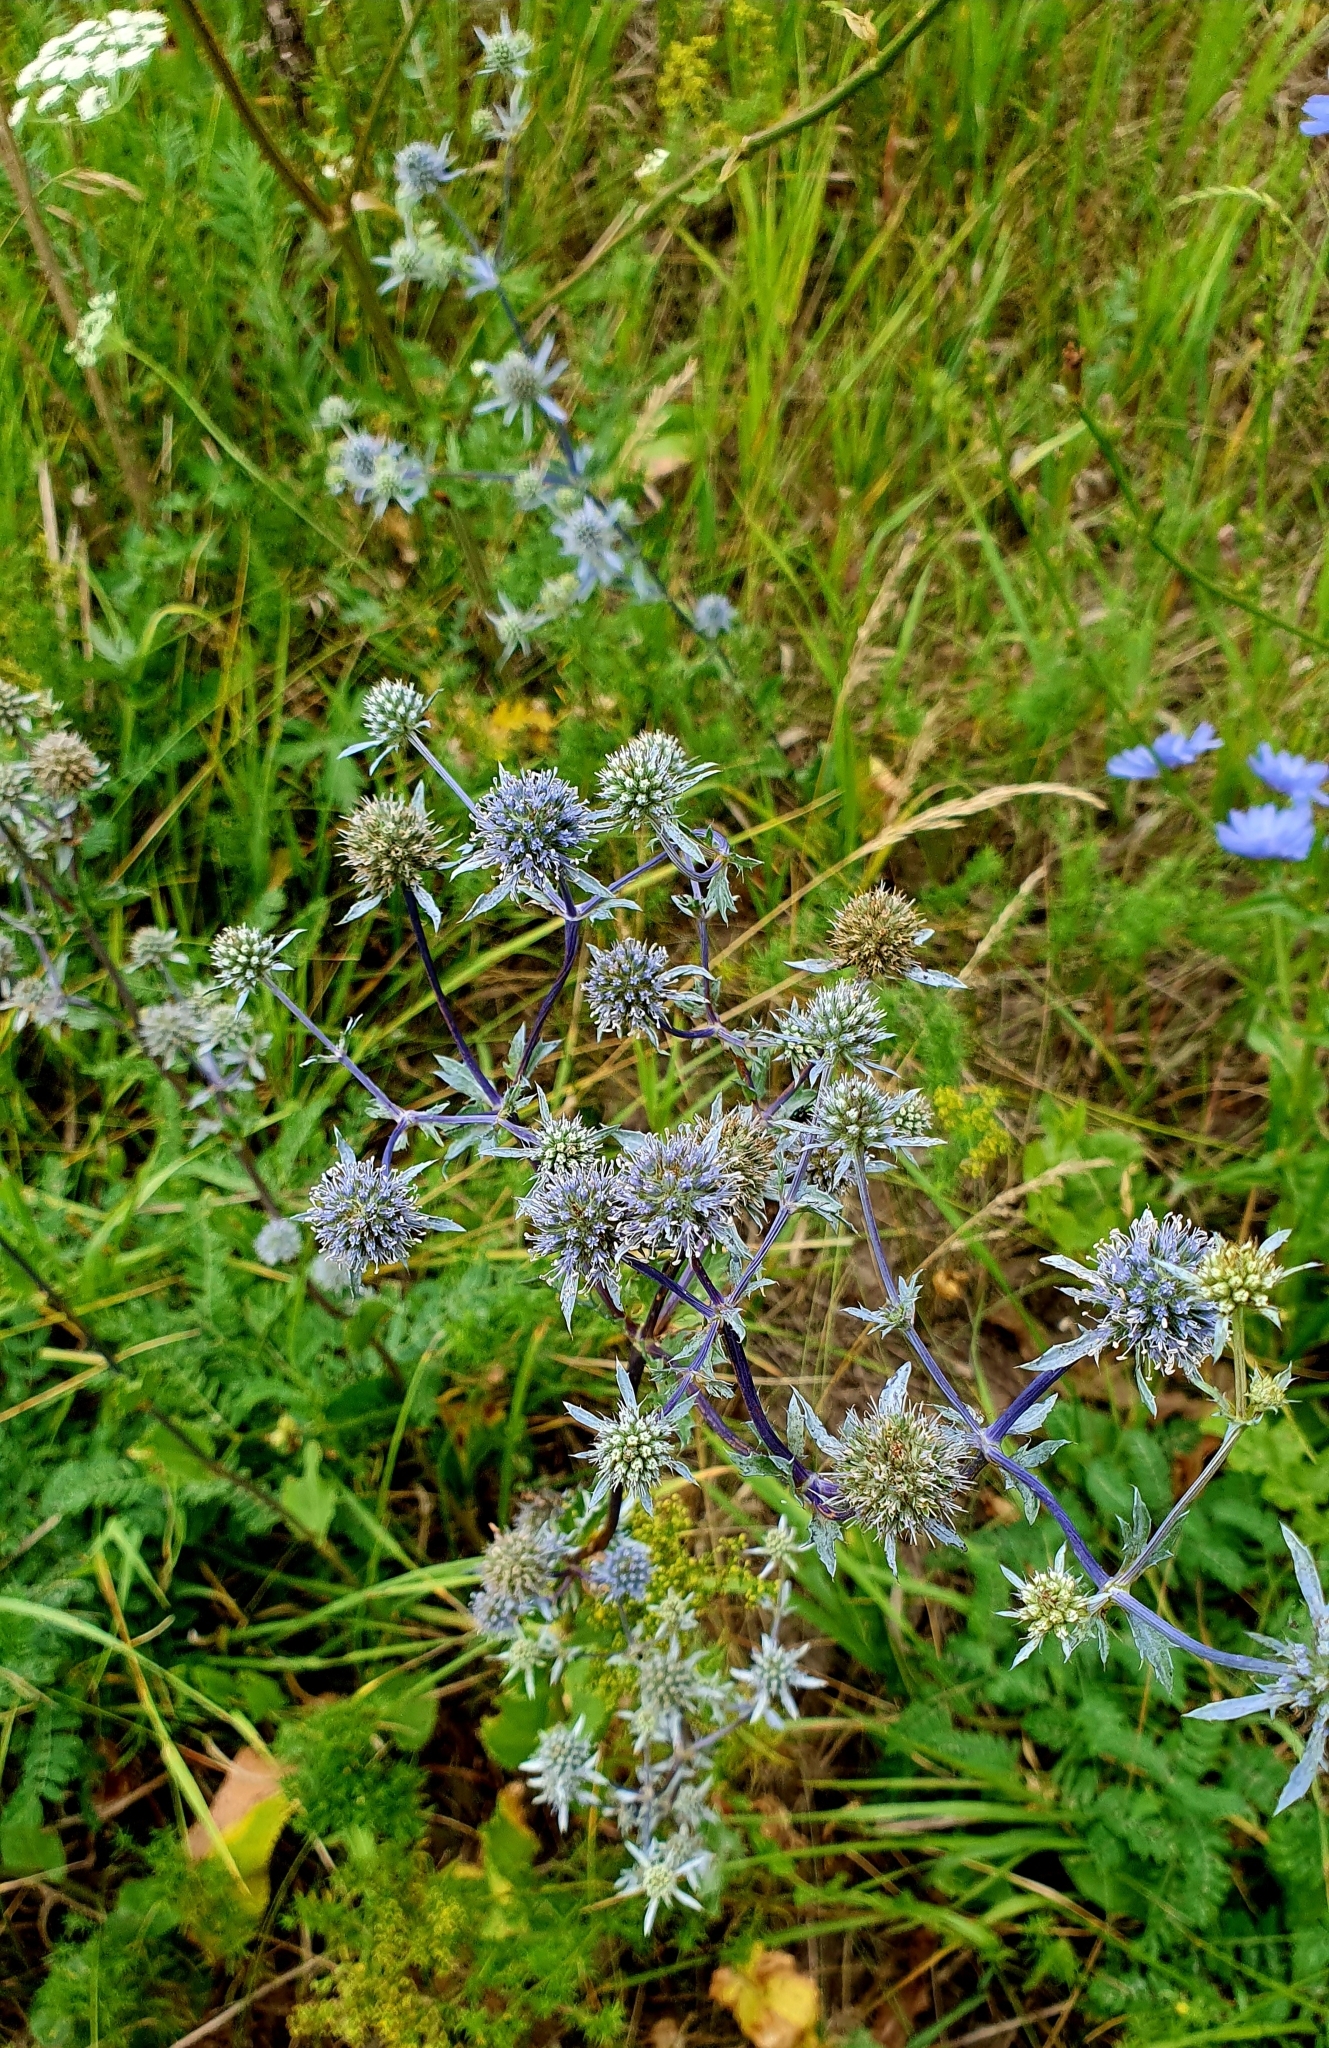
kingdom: Plantae
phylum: Tracheophyta
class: Magnoliopsida
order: Apiales
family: Apiaceae
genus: Eryngium
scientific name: Eryngium planum
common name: Blue eryngo
